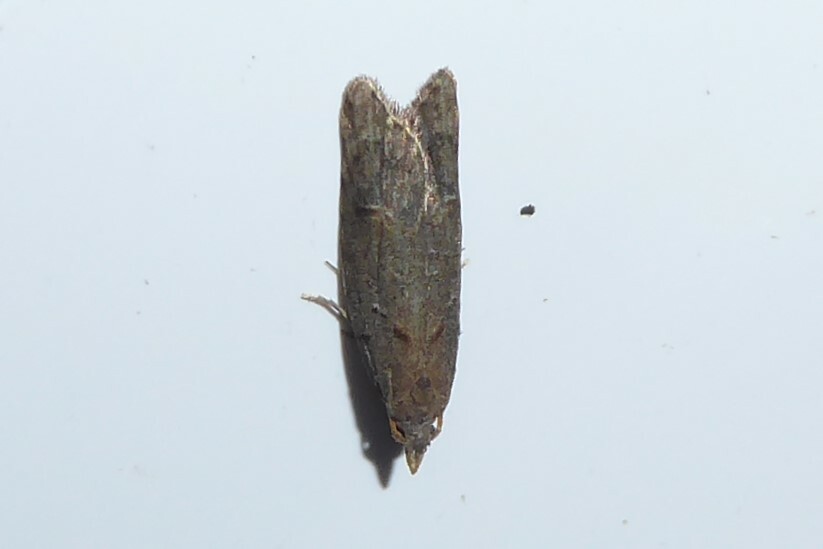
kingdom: Animalia
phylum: Arthropoda
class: Insecta
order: Lepidoptera
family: Carposinidae
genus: Carposina
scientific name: Carposina
